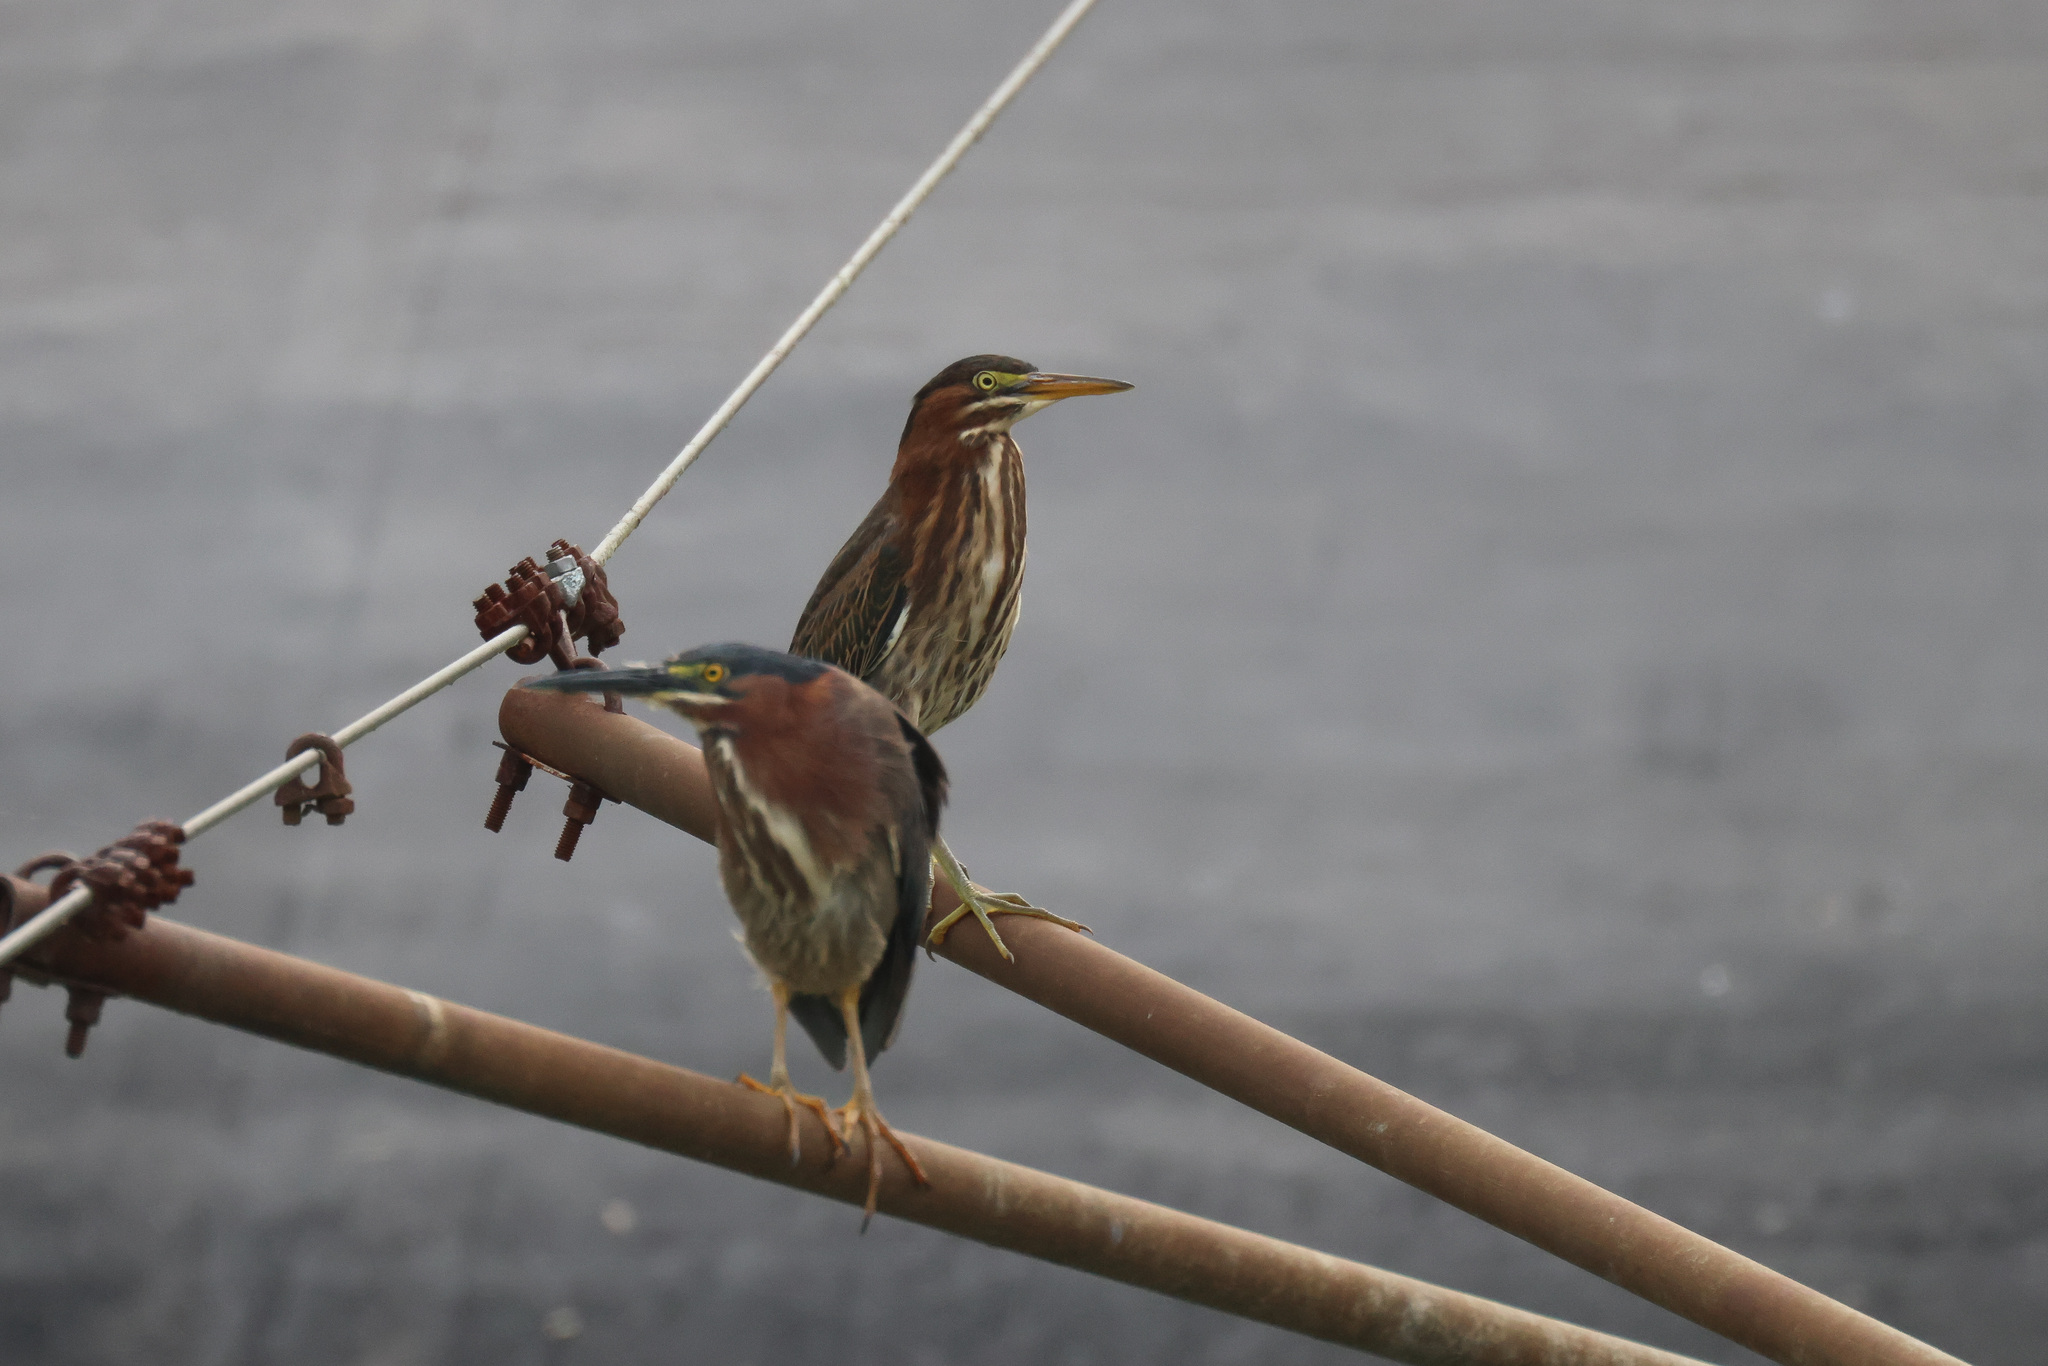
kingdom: Animalia
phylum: Chordata
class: Aves
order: Pelecaniformes
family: Ardeidae
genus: Butorides
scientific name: Butorides virescens
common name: Green heron
